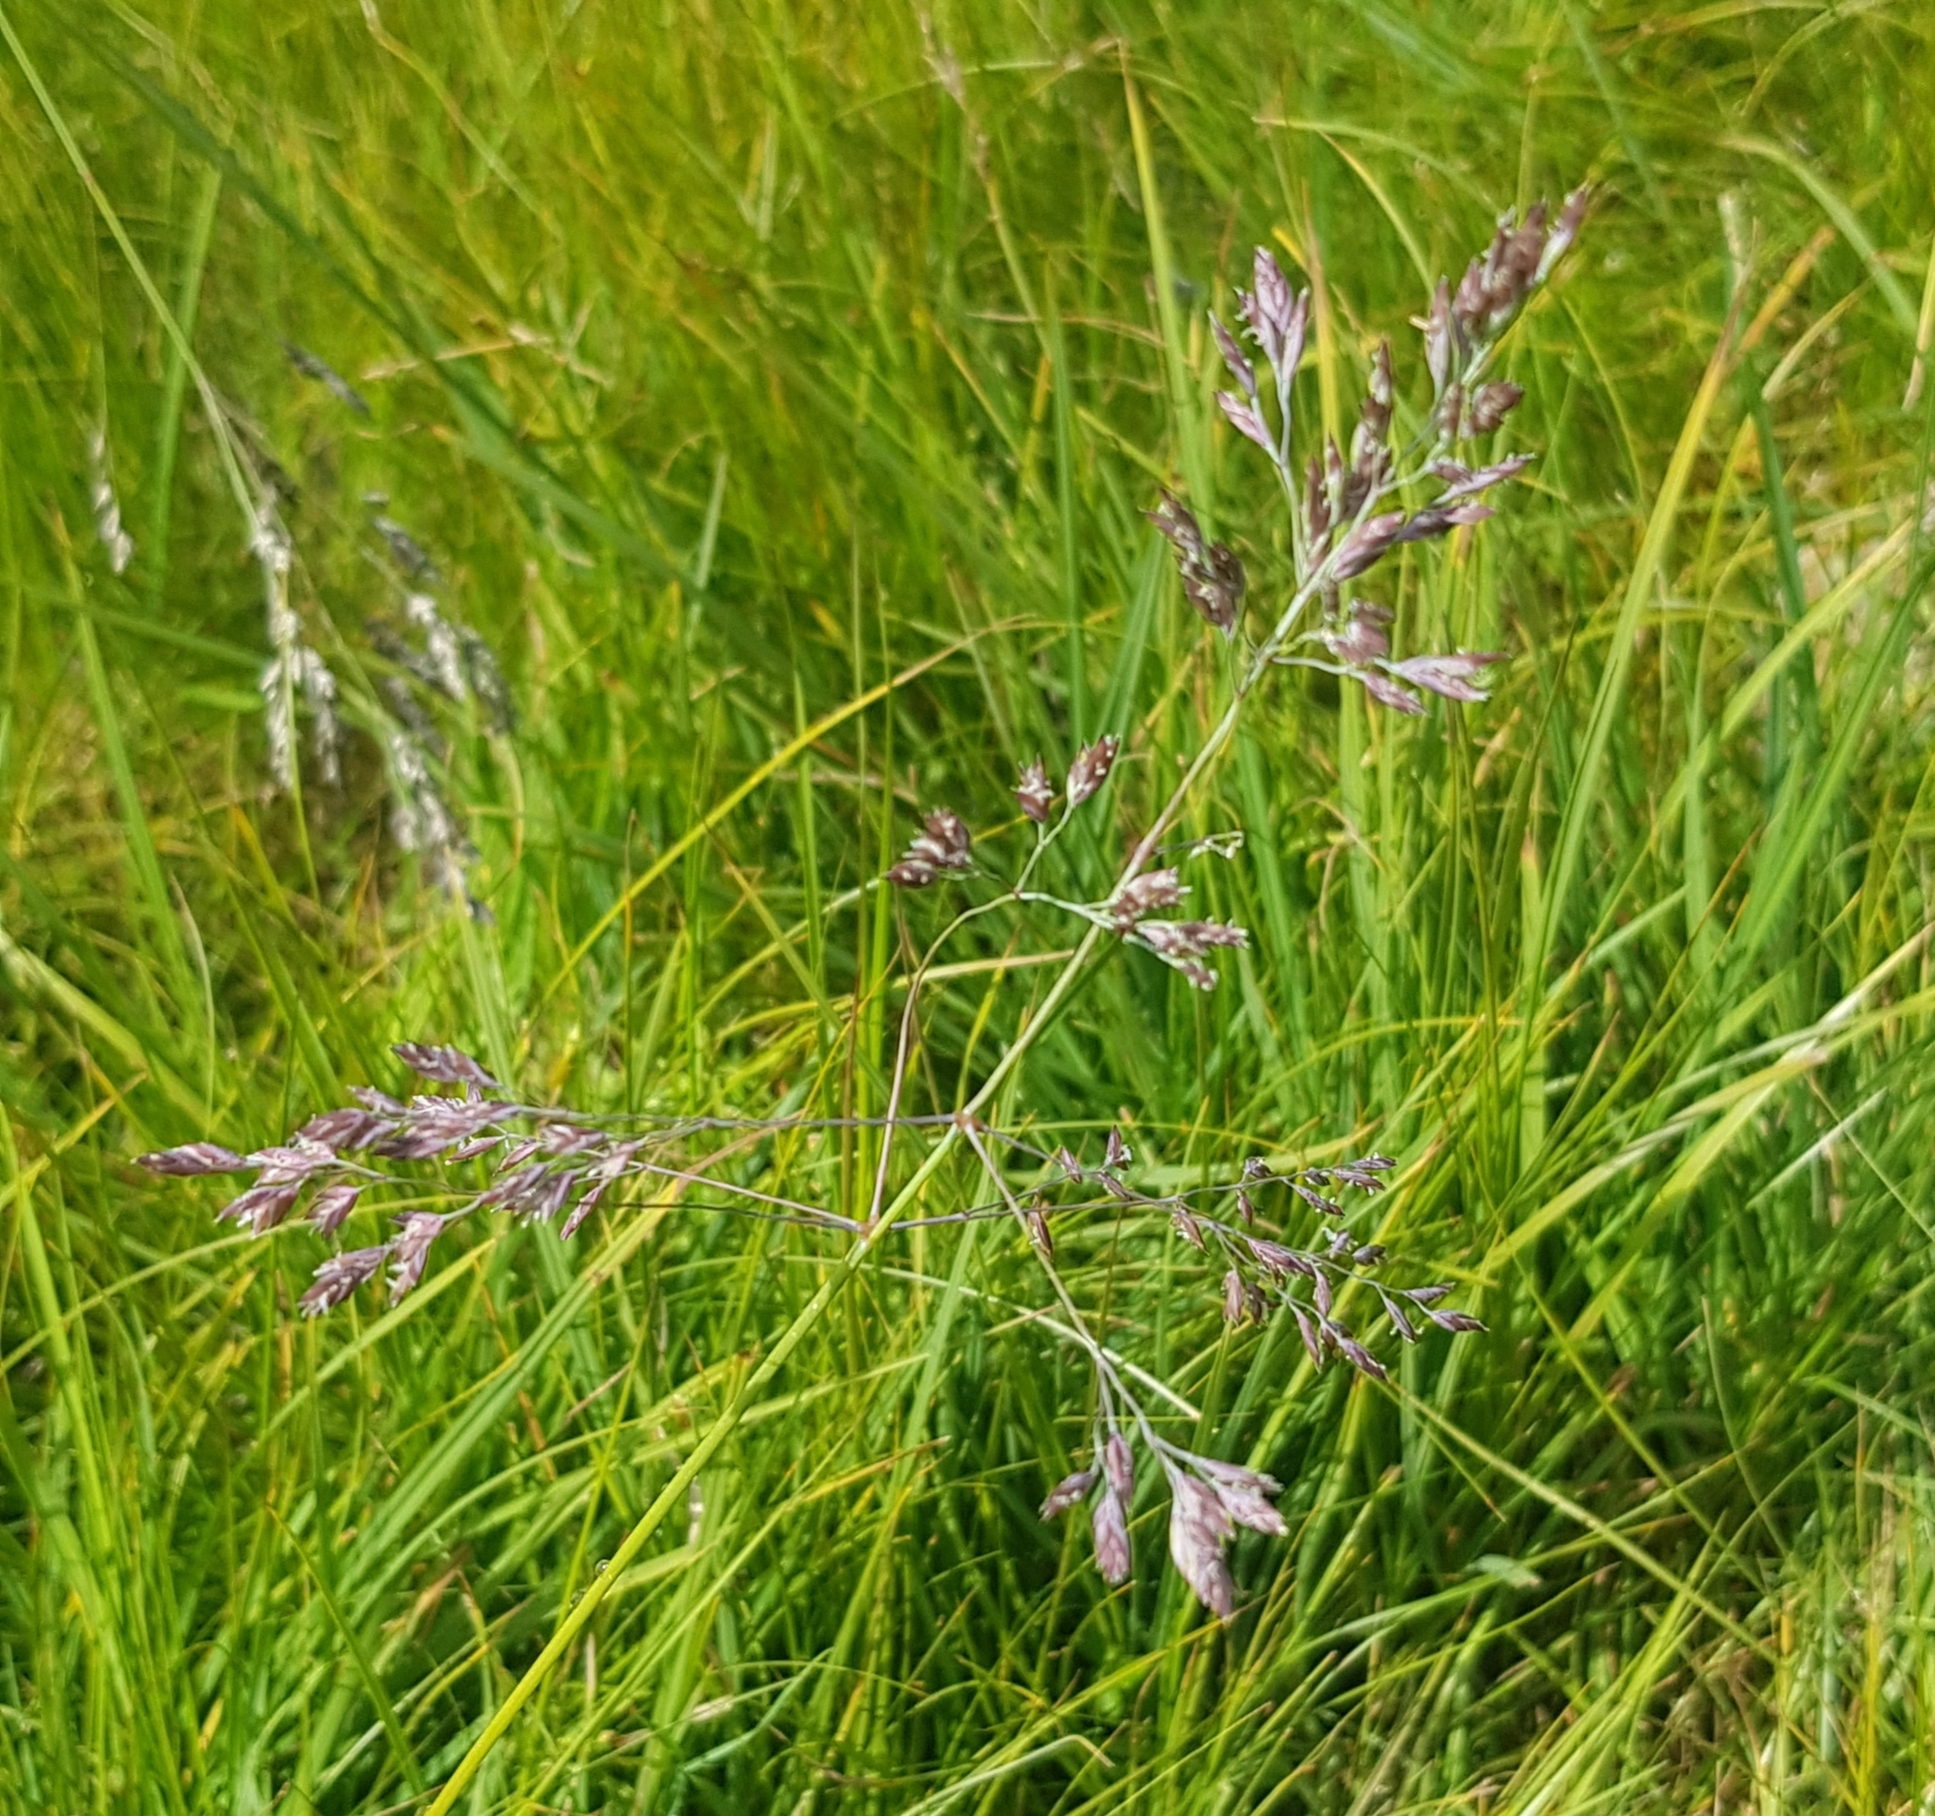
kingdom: Plantae
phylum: Tracheophyta
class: Liliopsida
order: Poales
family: Poaceae
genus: Poa
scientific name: Poa subfastigiata
